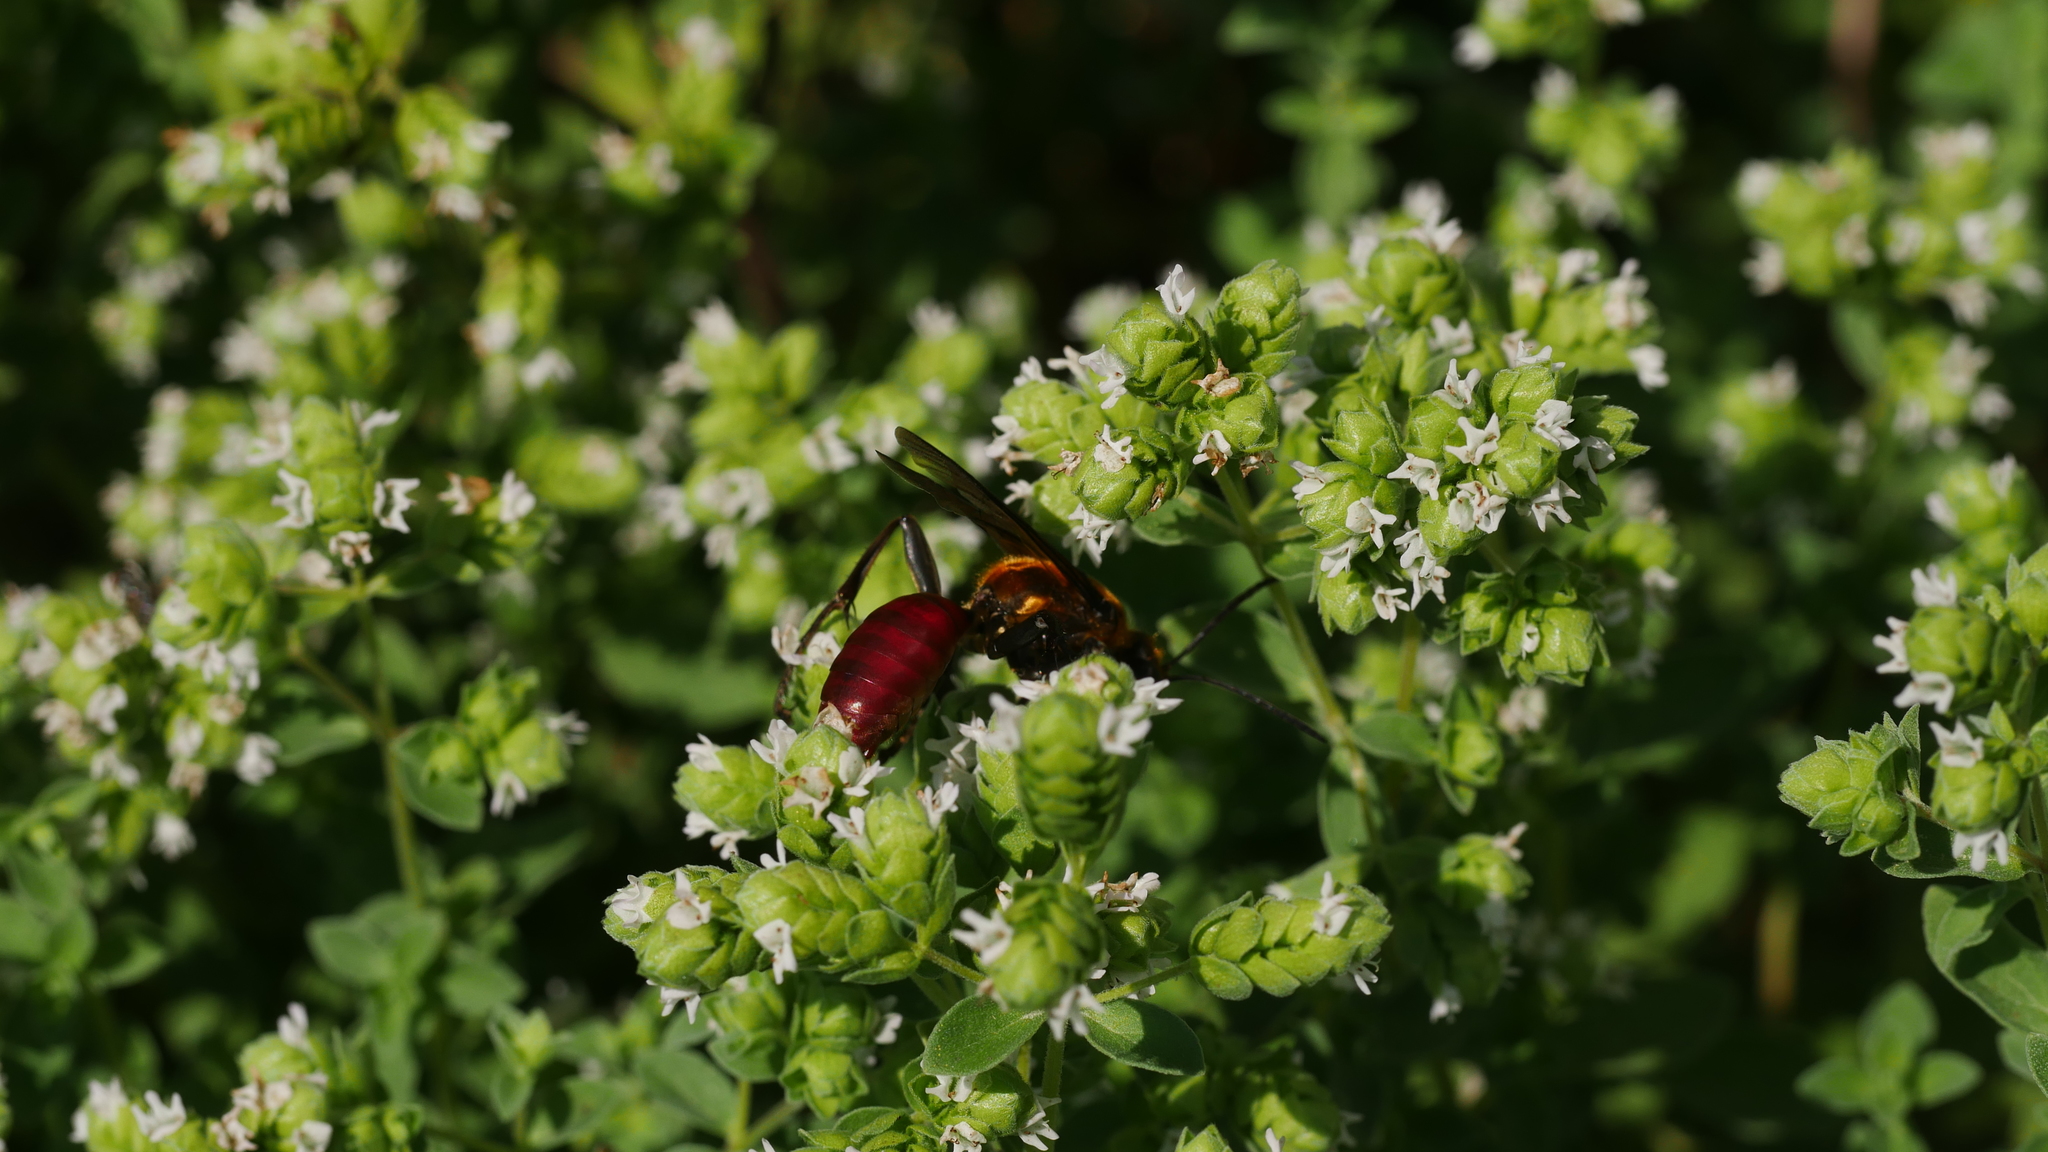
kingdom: Animalia
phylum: Arthropoda
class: Insecta
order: Hymenoptera
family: Sphecidae
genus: Sphex
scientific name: Sphex habenus
